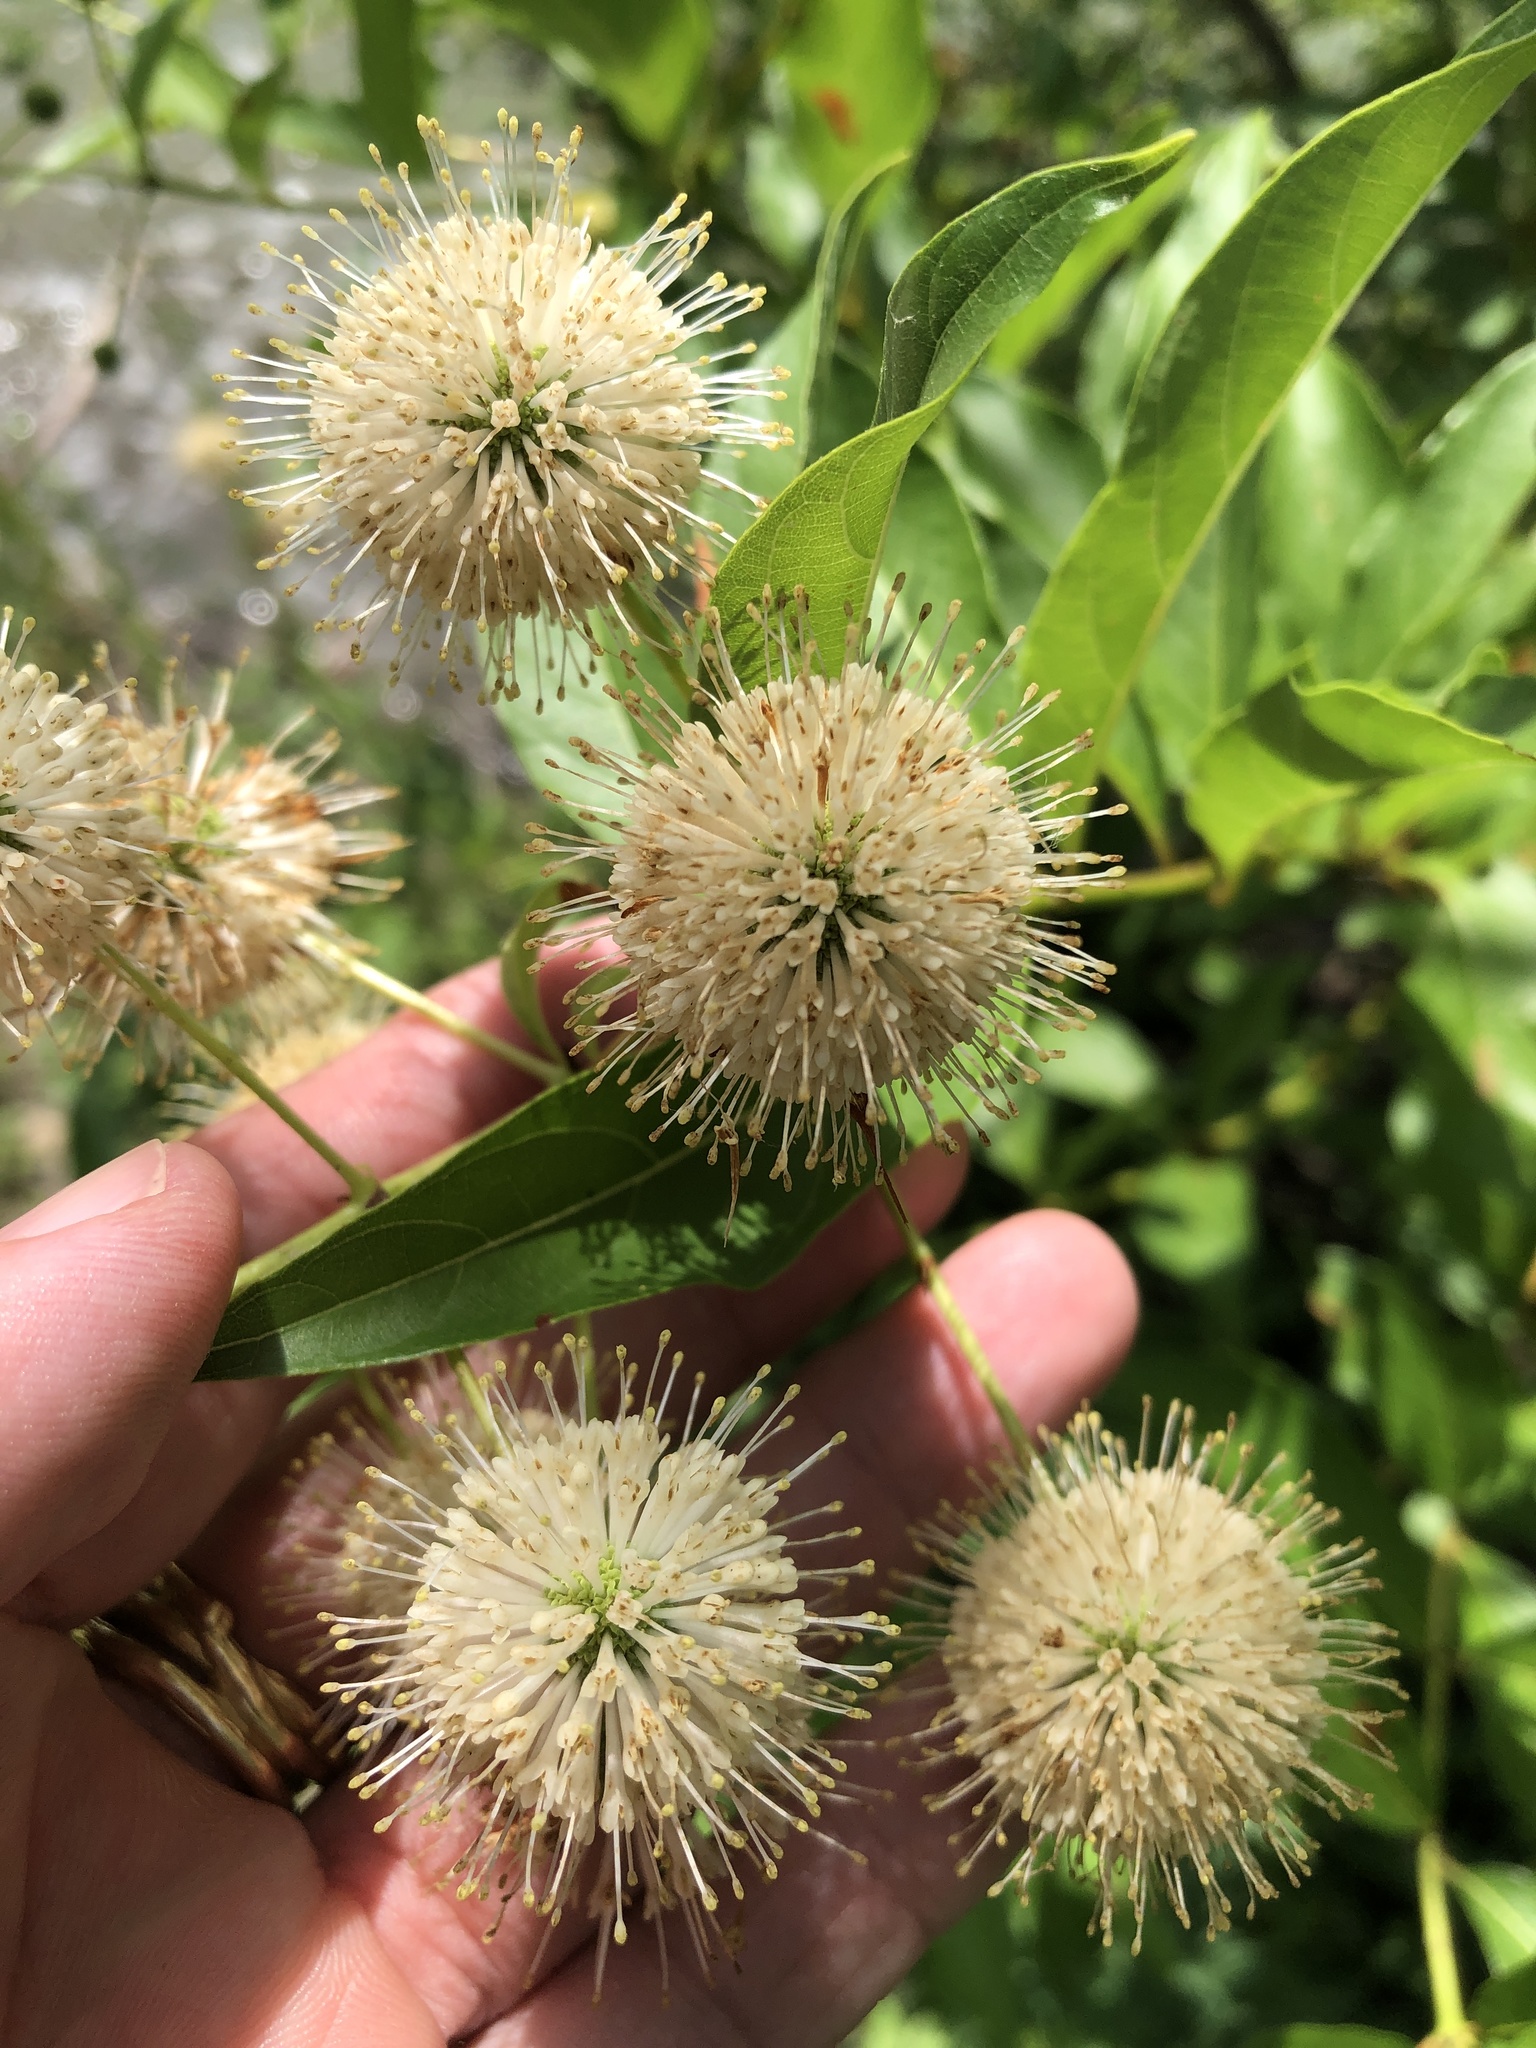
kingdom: Plantae
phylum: Tracheophyta
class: Magnoliopsida
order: Gentianales
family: Rubiaceae
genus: Cephalanthus
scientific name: Cephalanthus occidentalis
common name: Button-willow
